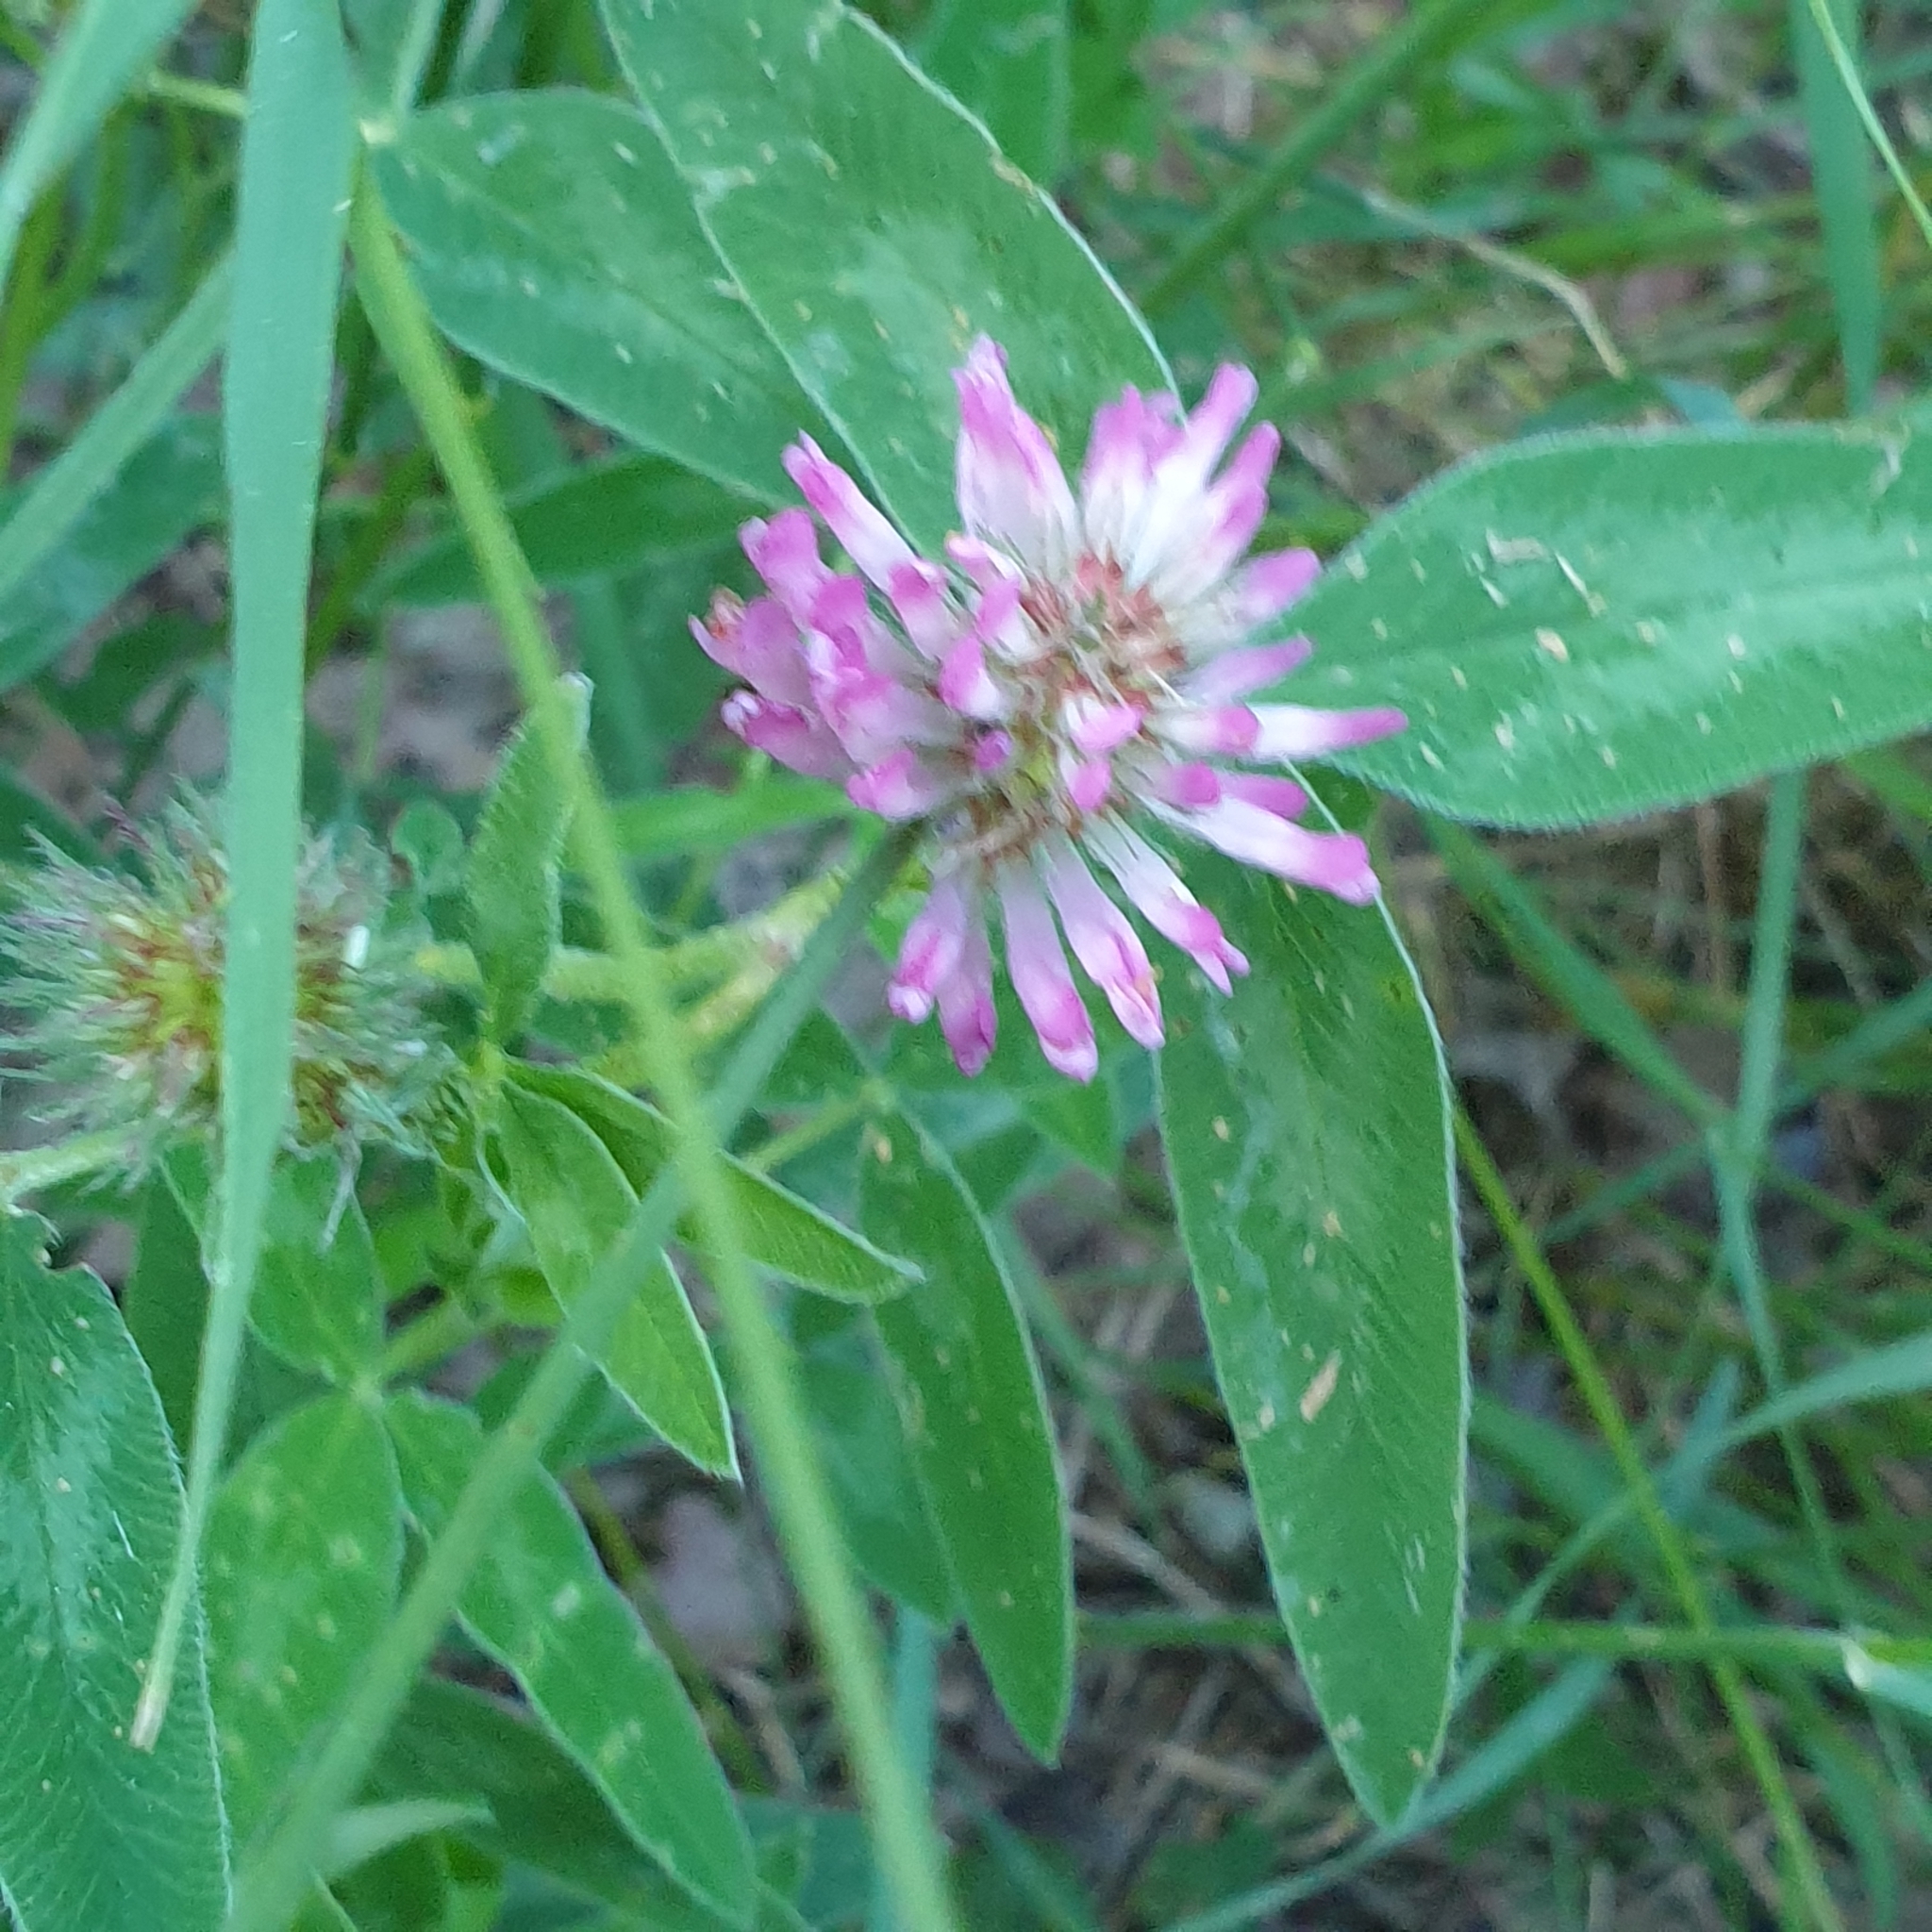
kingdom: Plantae
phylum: Tracheophyta
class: Magnoliopsida
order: Fabales
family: Fabaceae
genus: Trifolium
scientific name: Trifolium medium
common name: Zigzag clover
